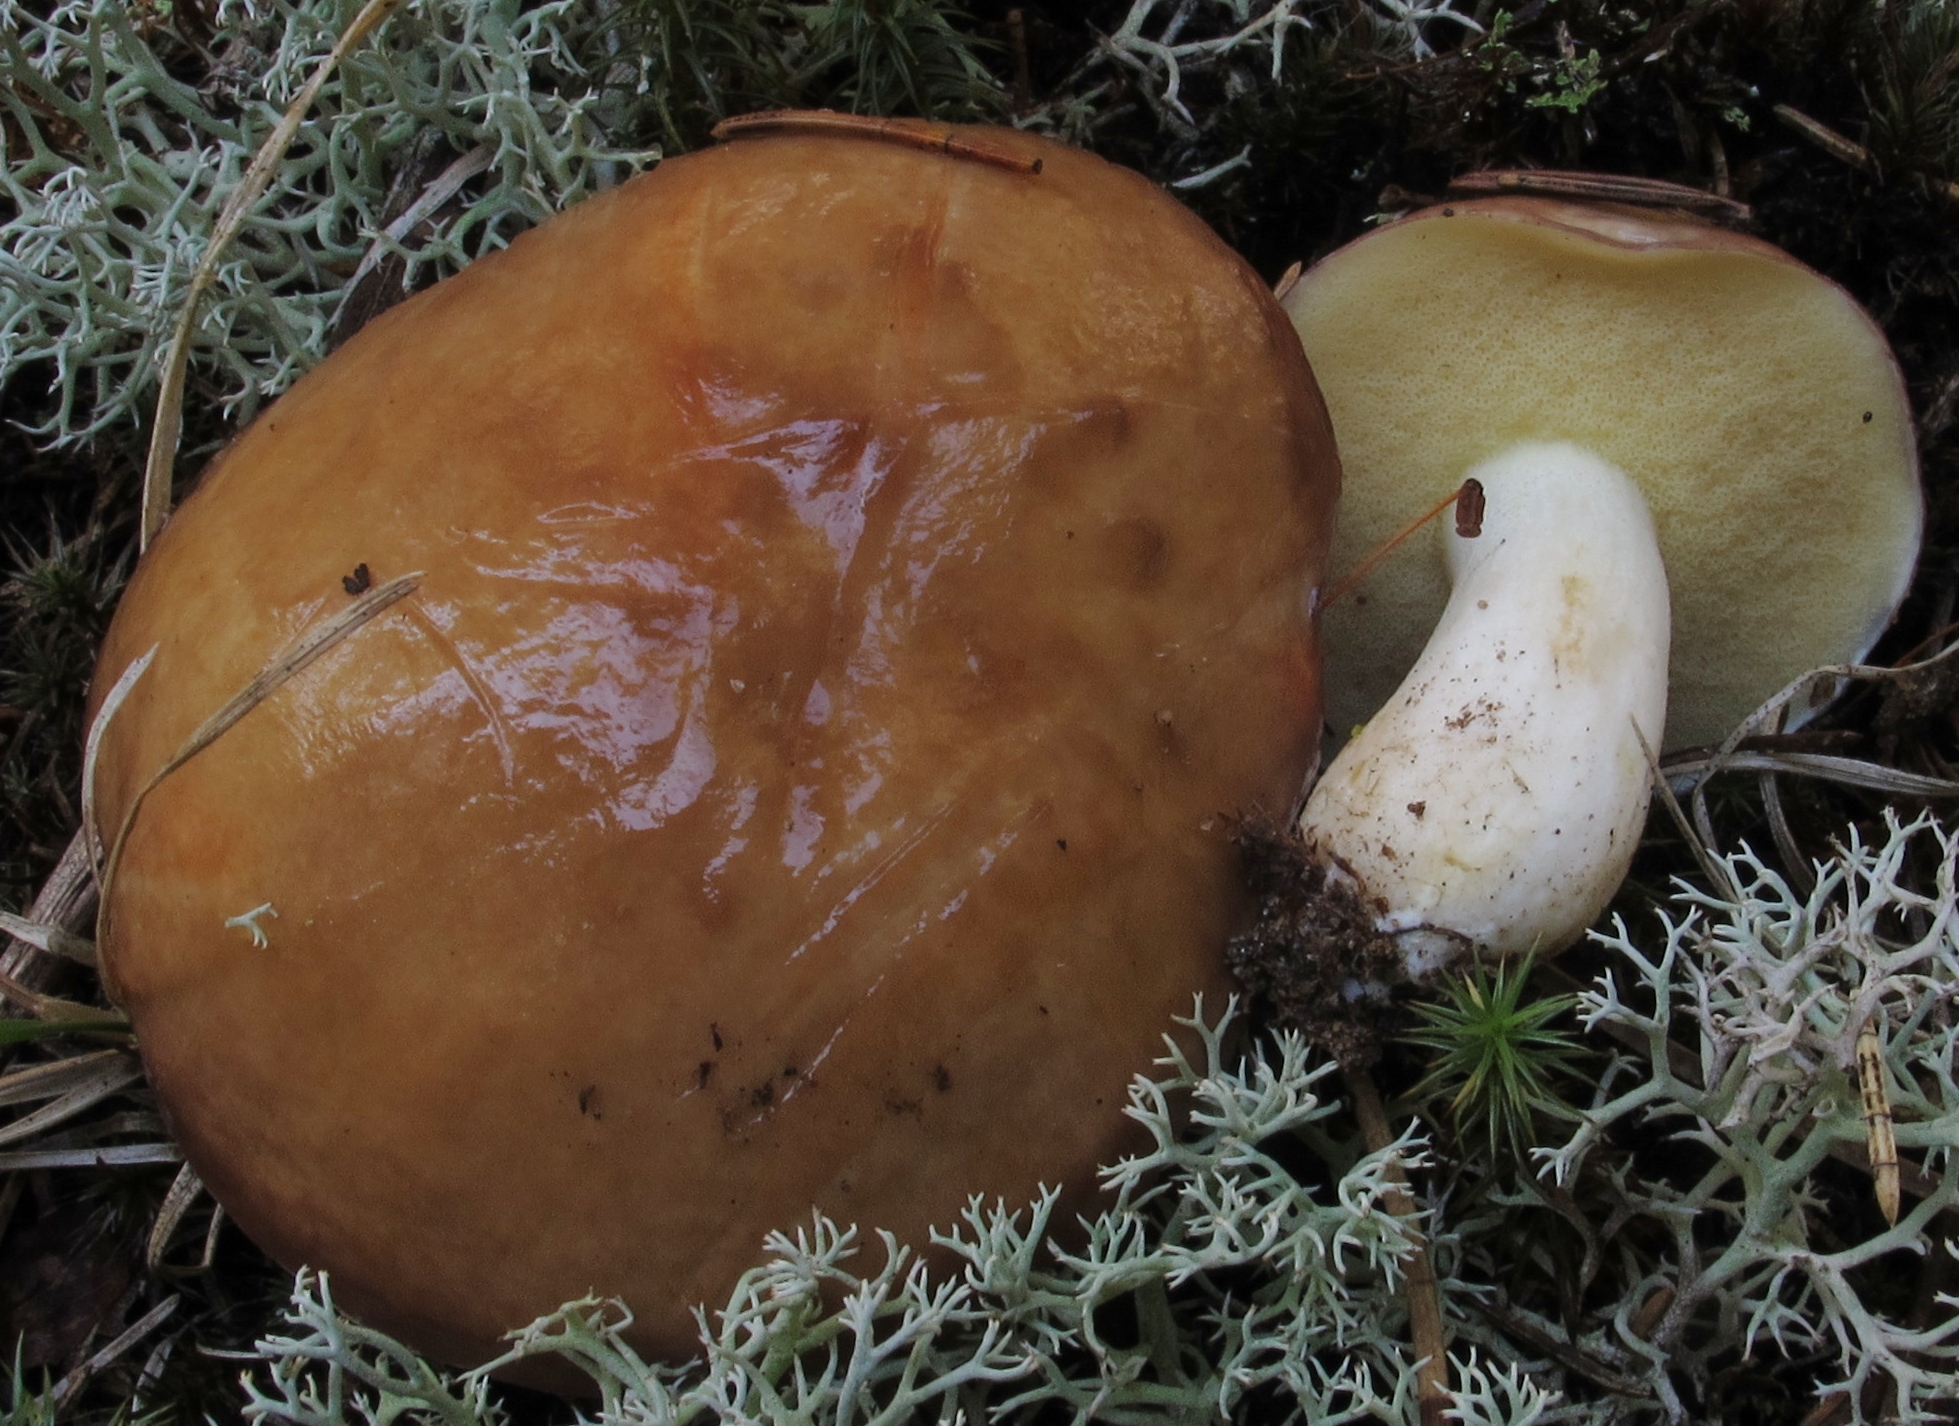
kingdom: Fungi
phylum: Basidiomycota
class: Agaricomycetes
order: Boletales
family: Suillaceae
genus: Suillus
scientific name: Suillus brevipes
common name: Short-stalked suillus
